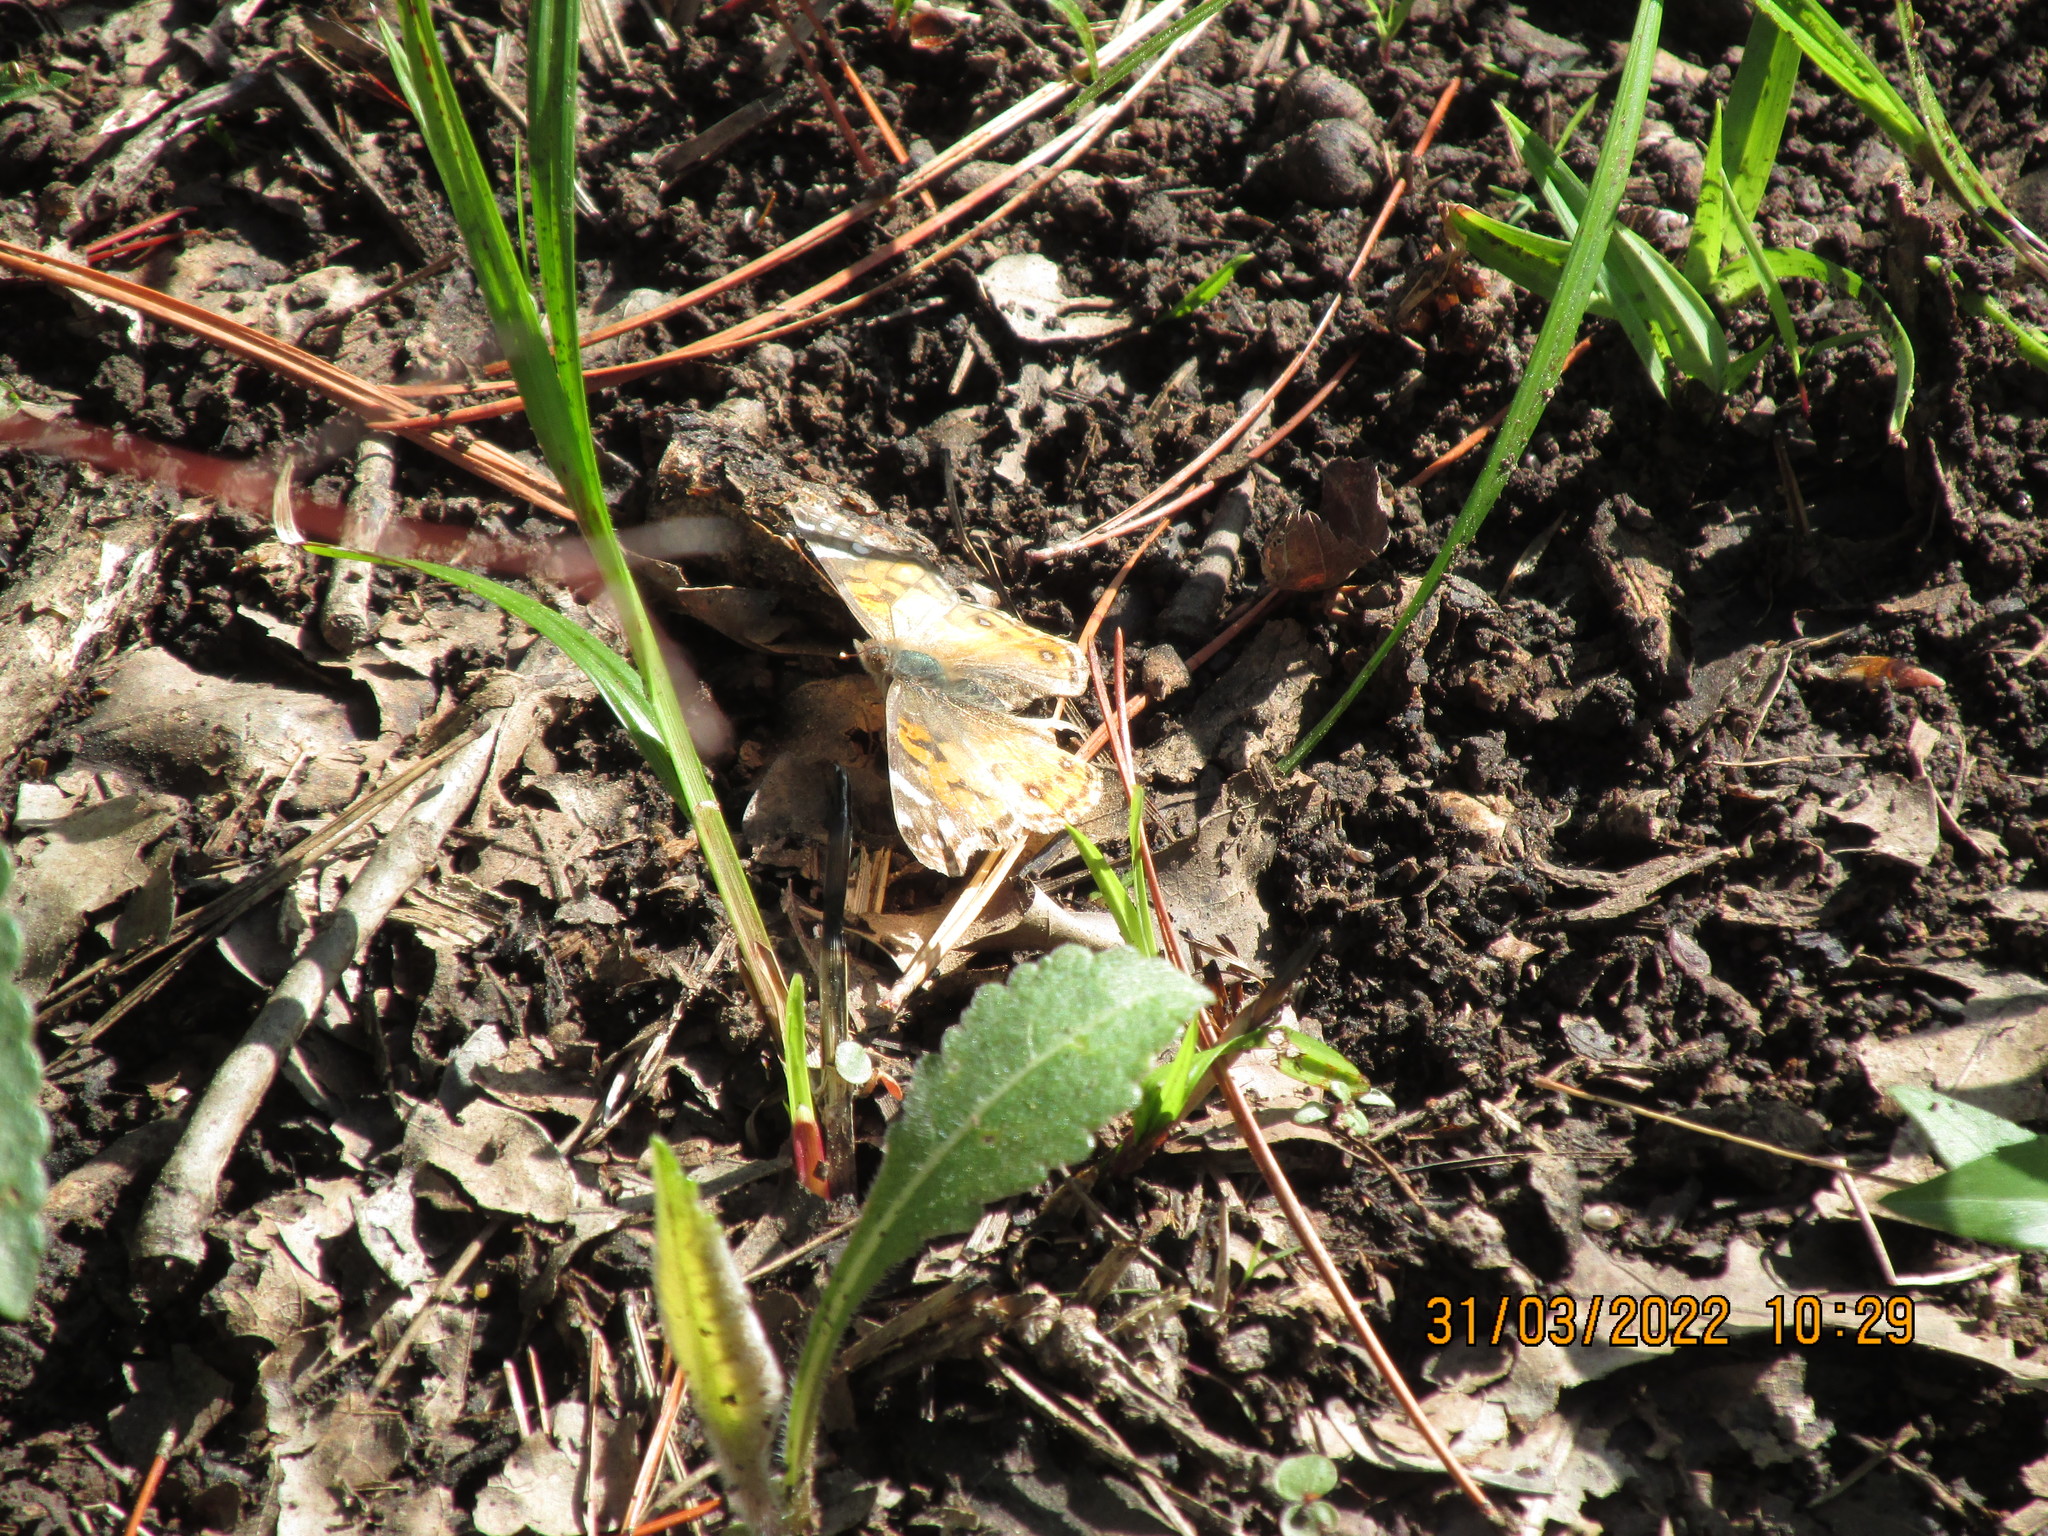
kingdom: Animalia
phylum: Arthropoda
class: Insecta
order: Lepidoptera
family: Nymphalidae
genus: Vanessa
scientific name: Vanessa virginiensis
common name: American lady
